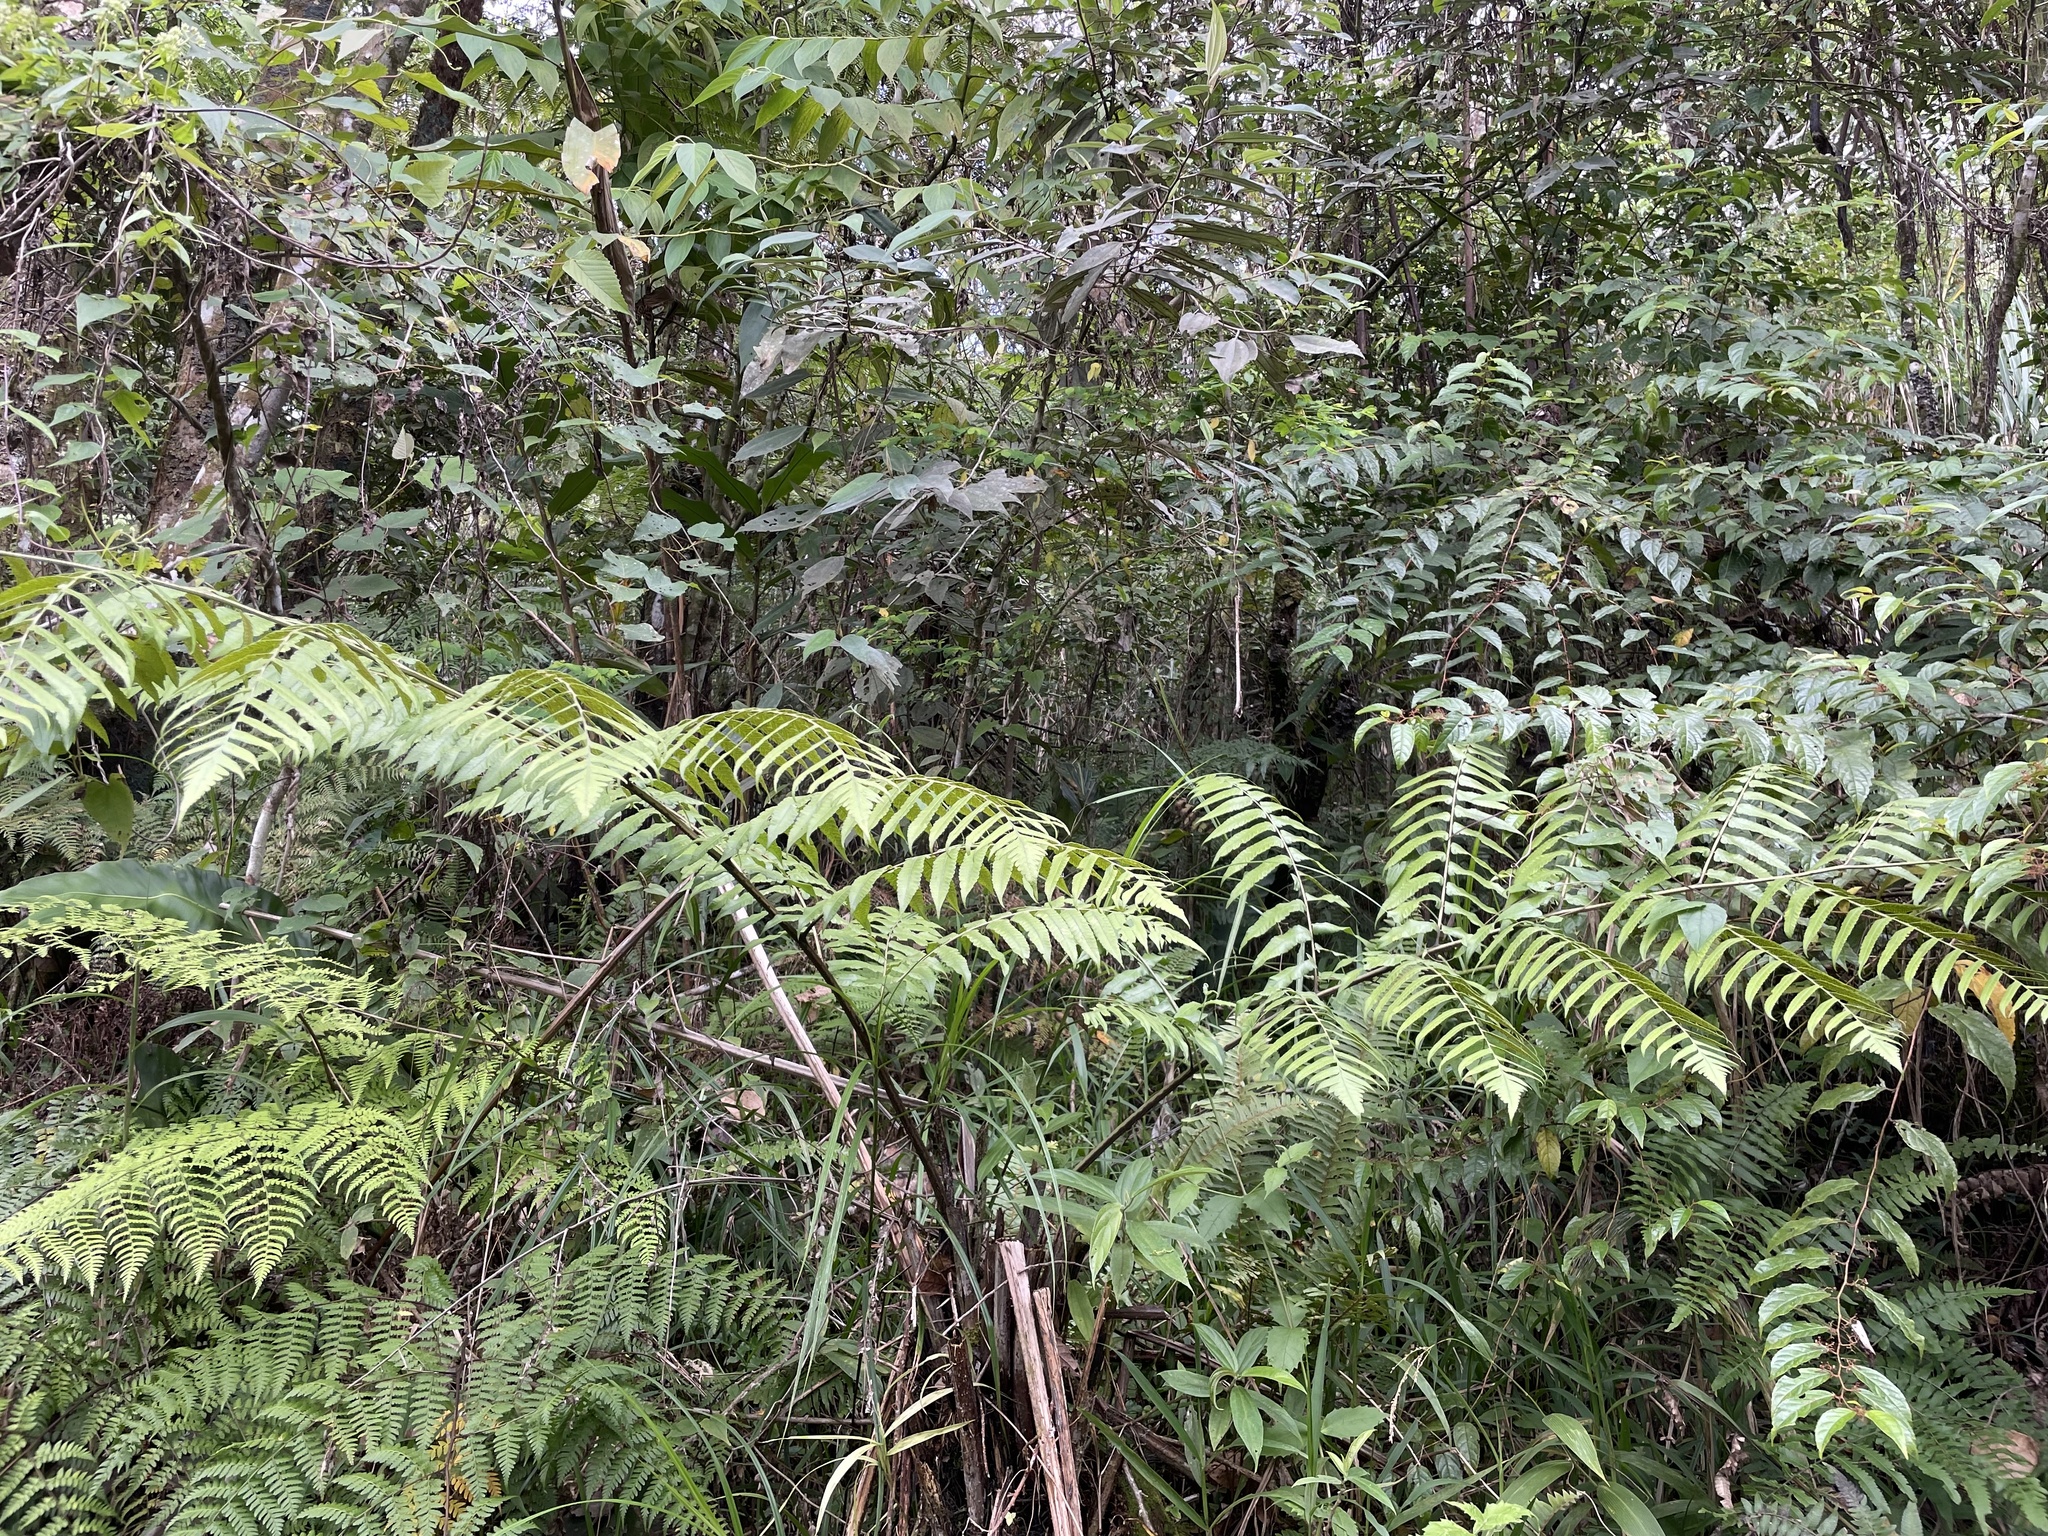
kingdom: Plantae
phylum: Tracheophyta
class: Polypodiopsida
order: Polypodiales
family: Athyriaceae
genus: Diplazium
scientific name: Diplazium dilatatum
